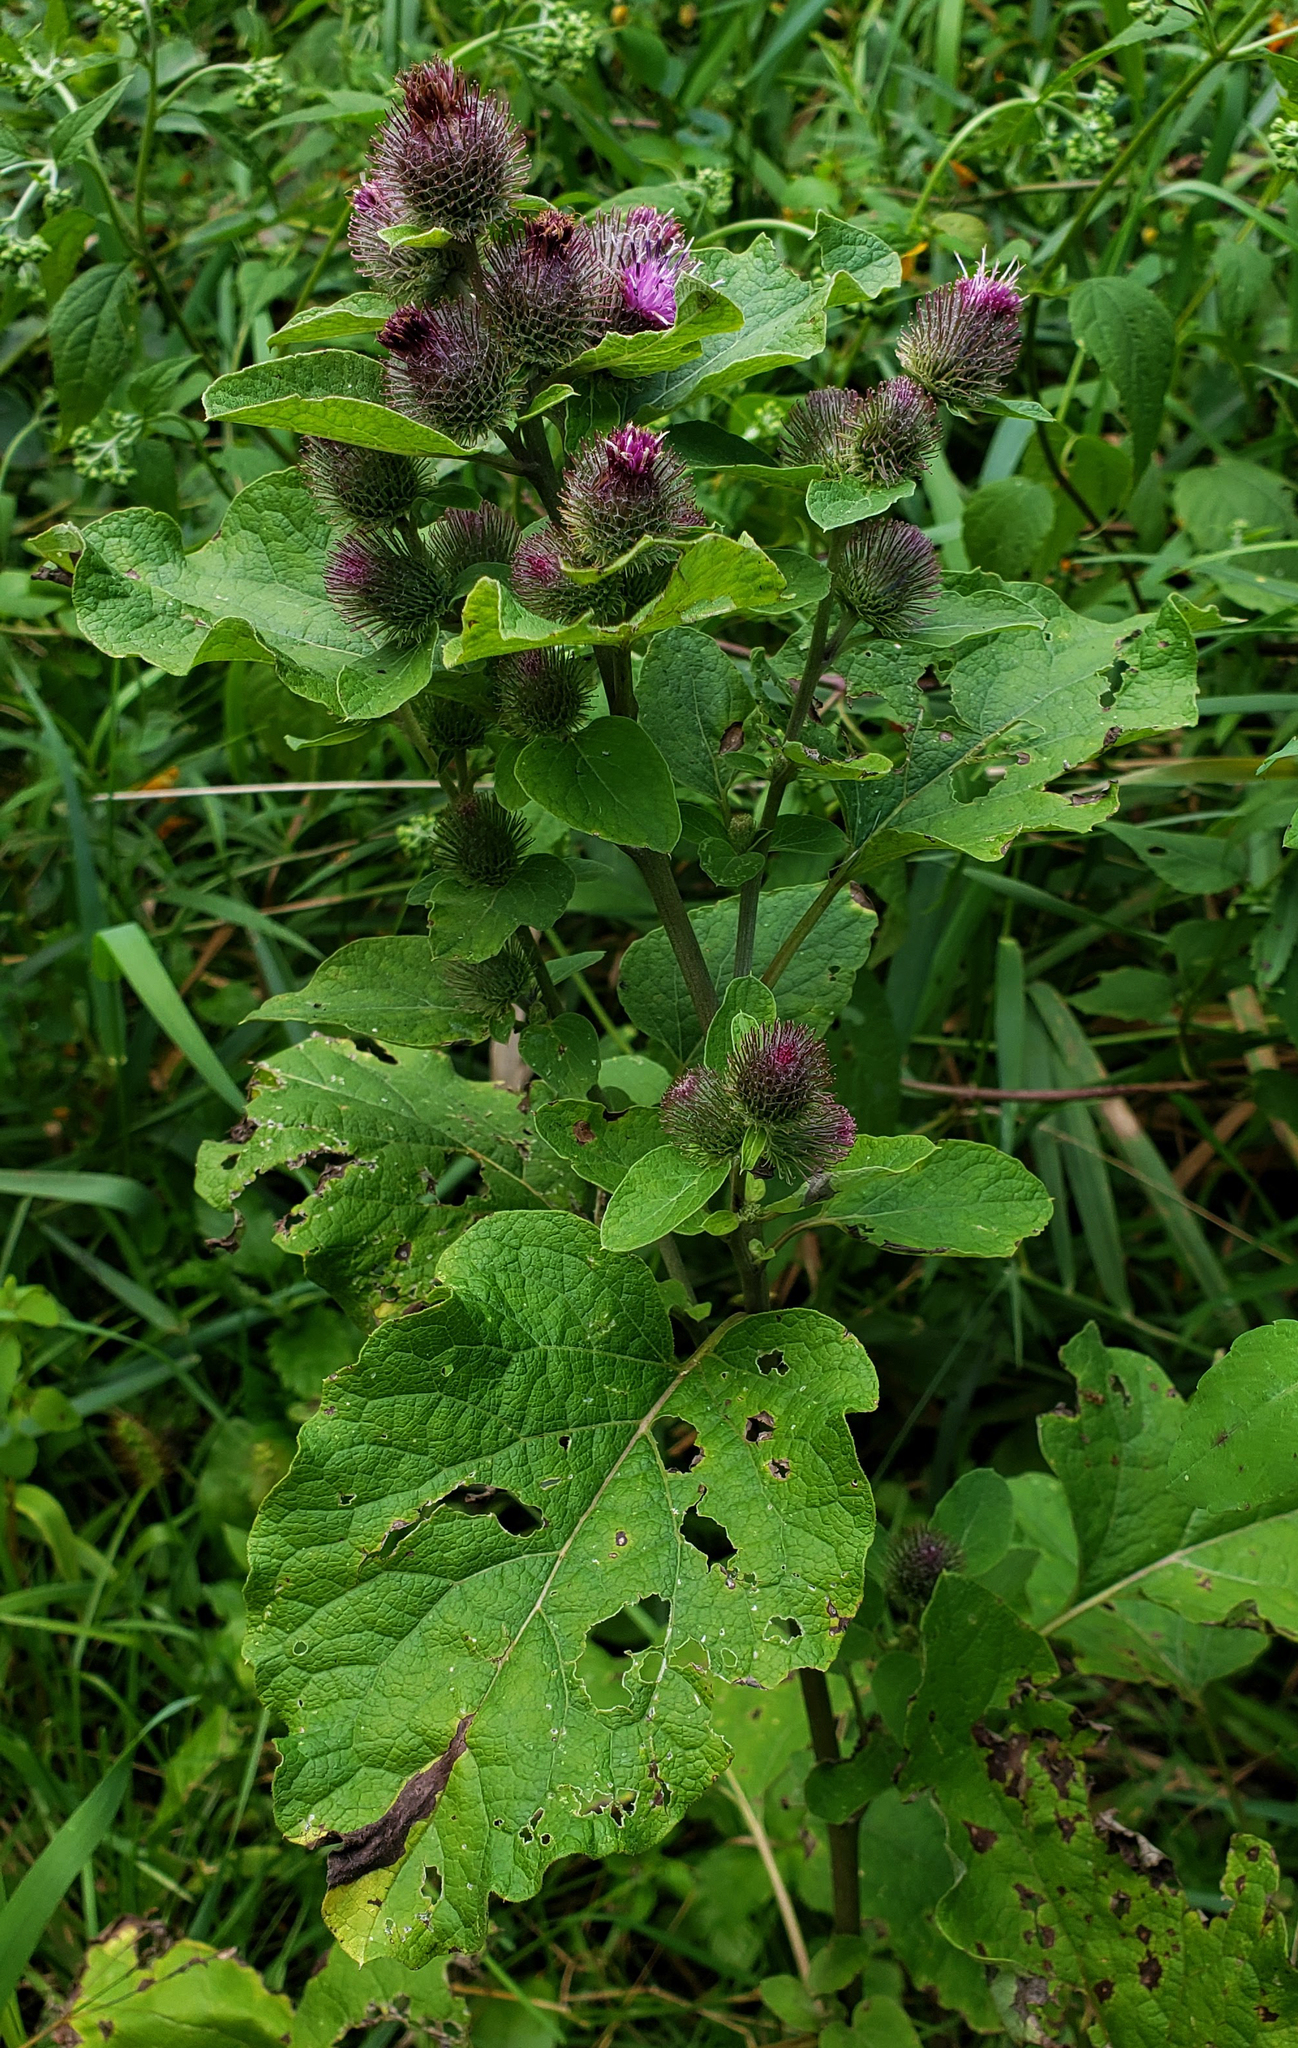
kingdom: Plantae
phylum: Tracheophyta
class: Magnoliopsida
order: Asterales
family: Asteraceae
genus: Arctium
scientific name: Arctium minus
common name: Lesser burdock
